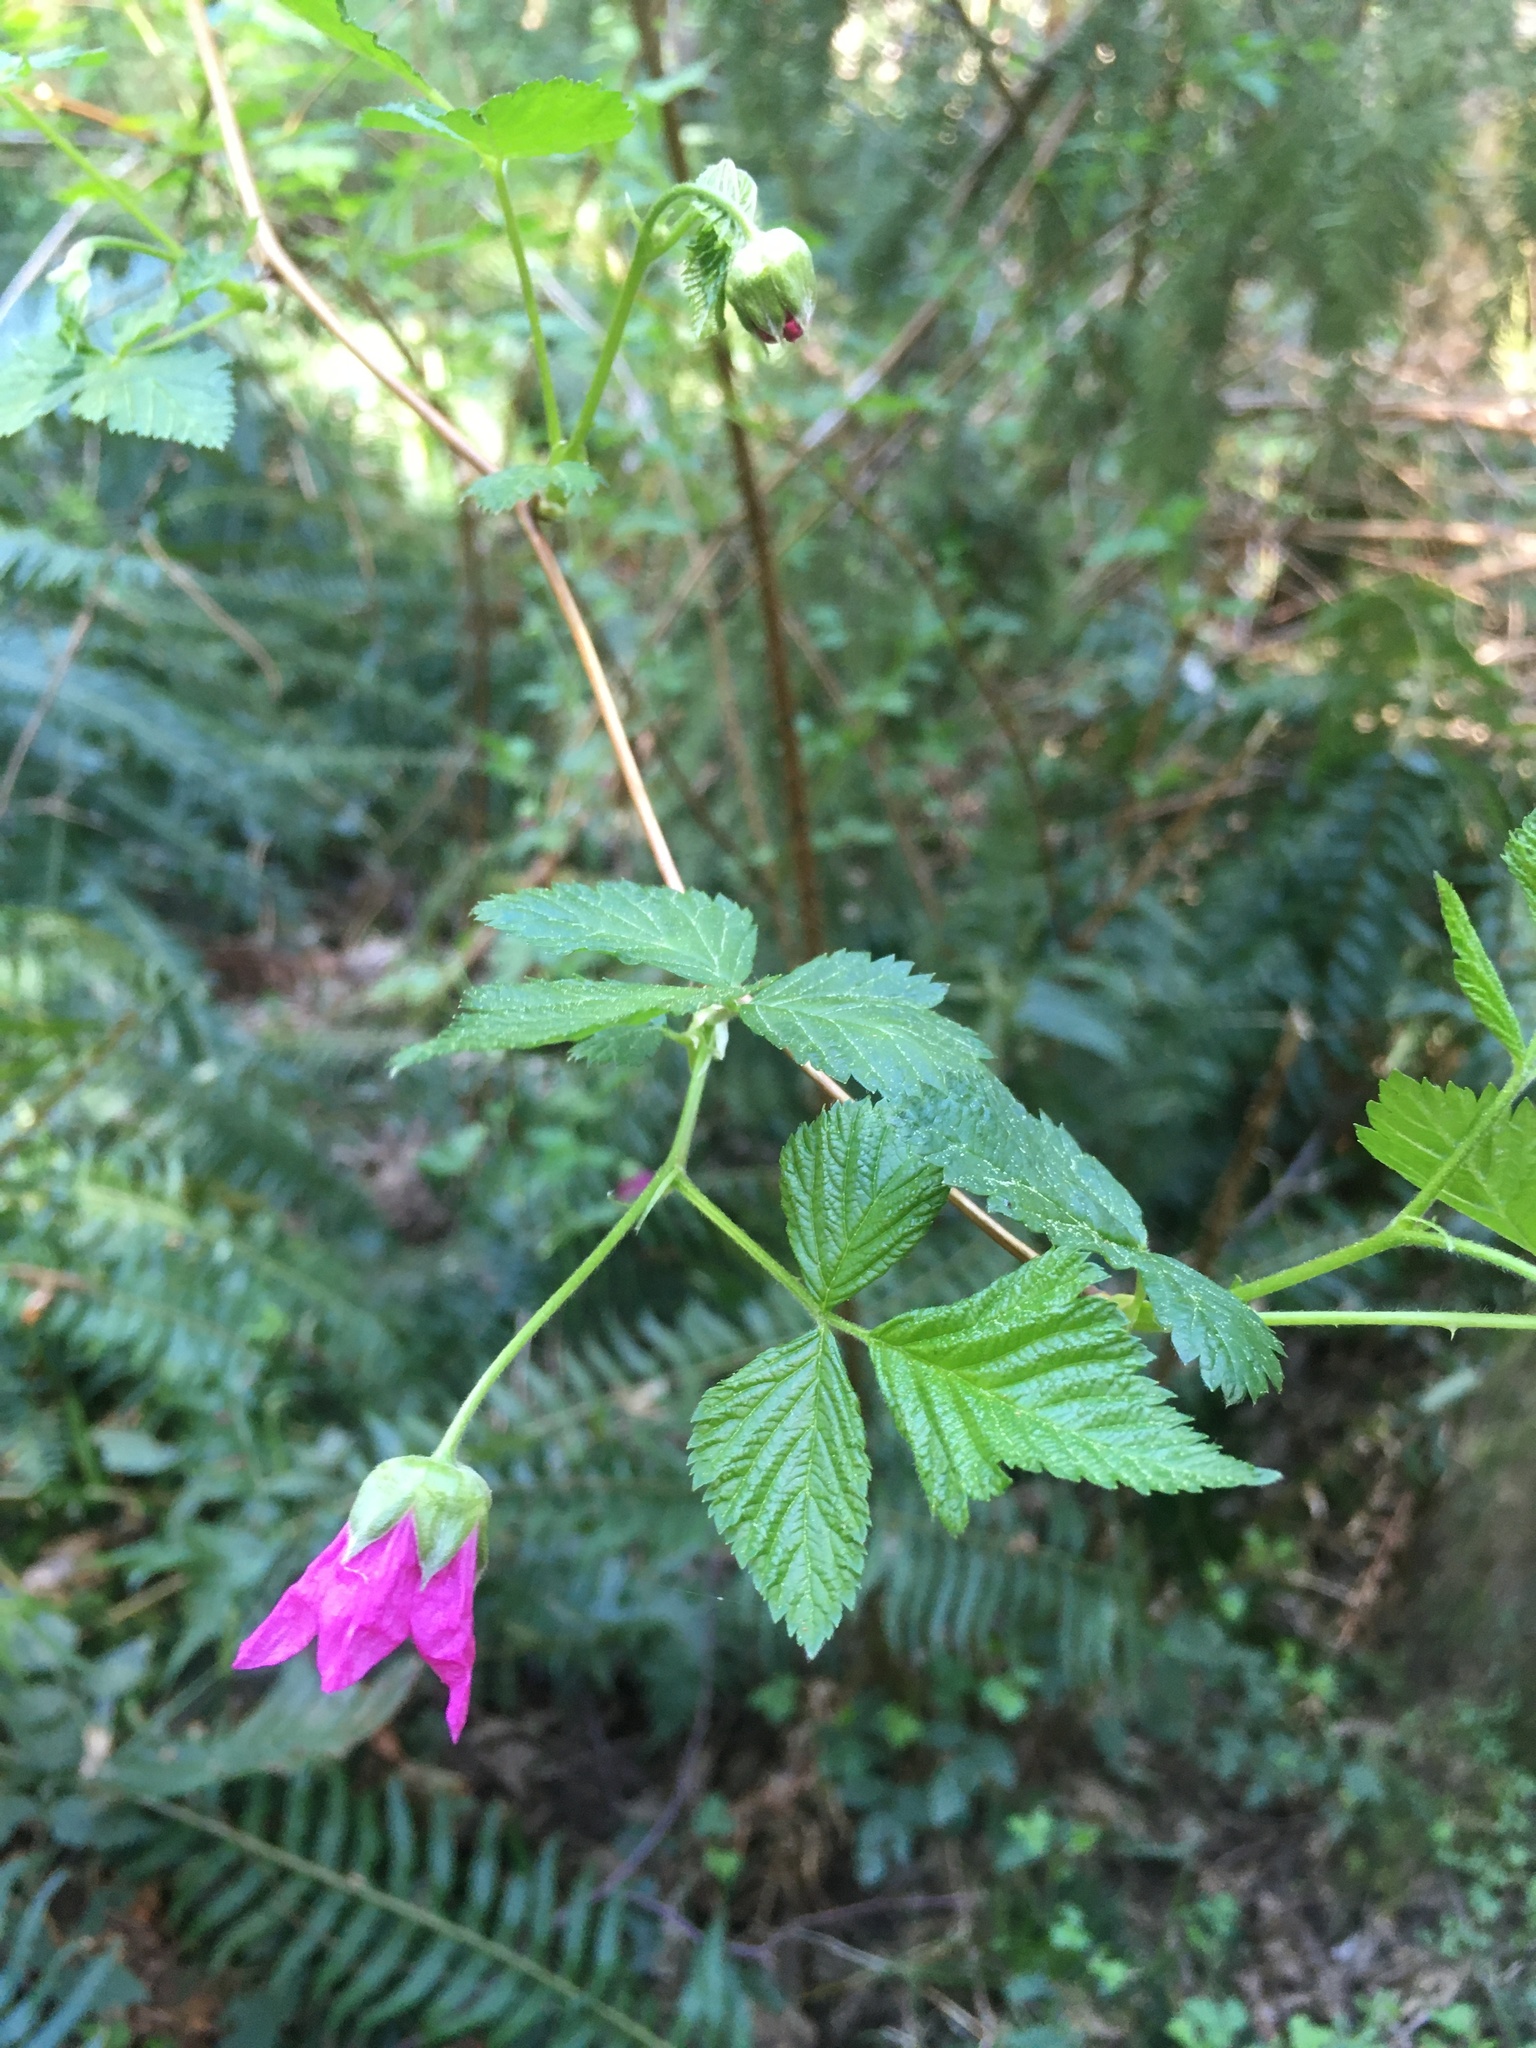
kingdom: Plantae
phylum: Tracheophyta
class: Magnoliopsida
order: Rosales
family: Rosaceae
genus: Rubus
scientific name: Rubus spectabilis
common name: Salmonberry
